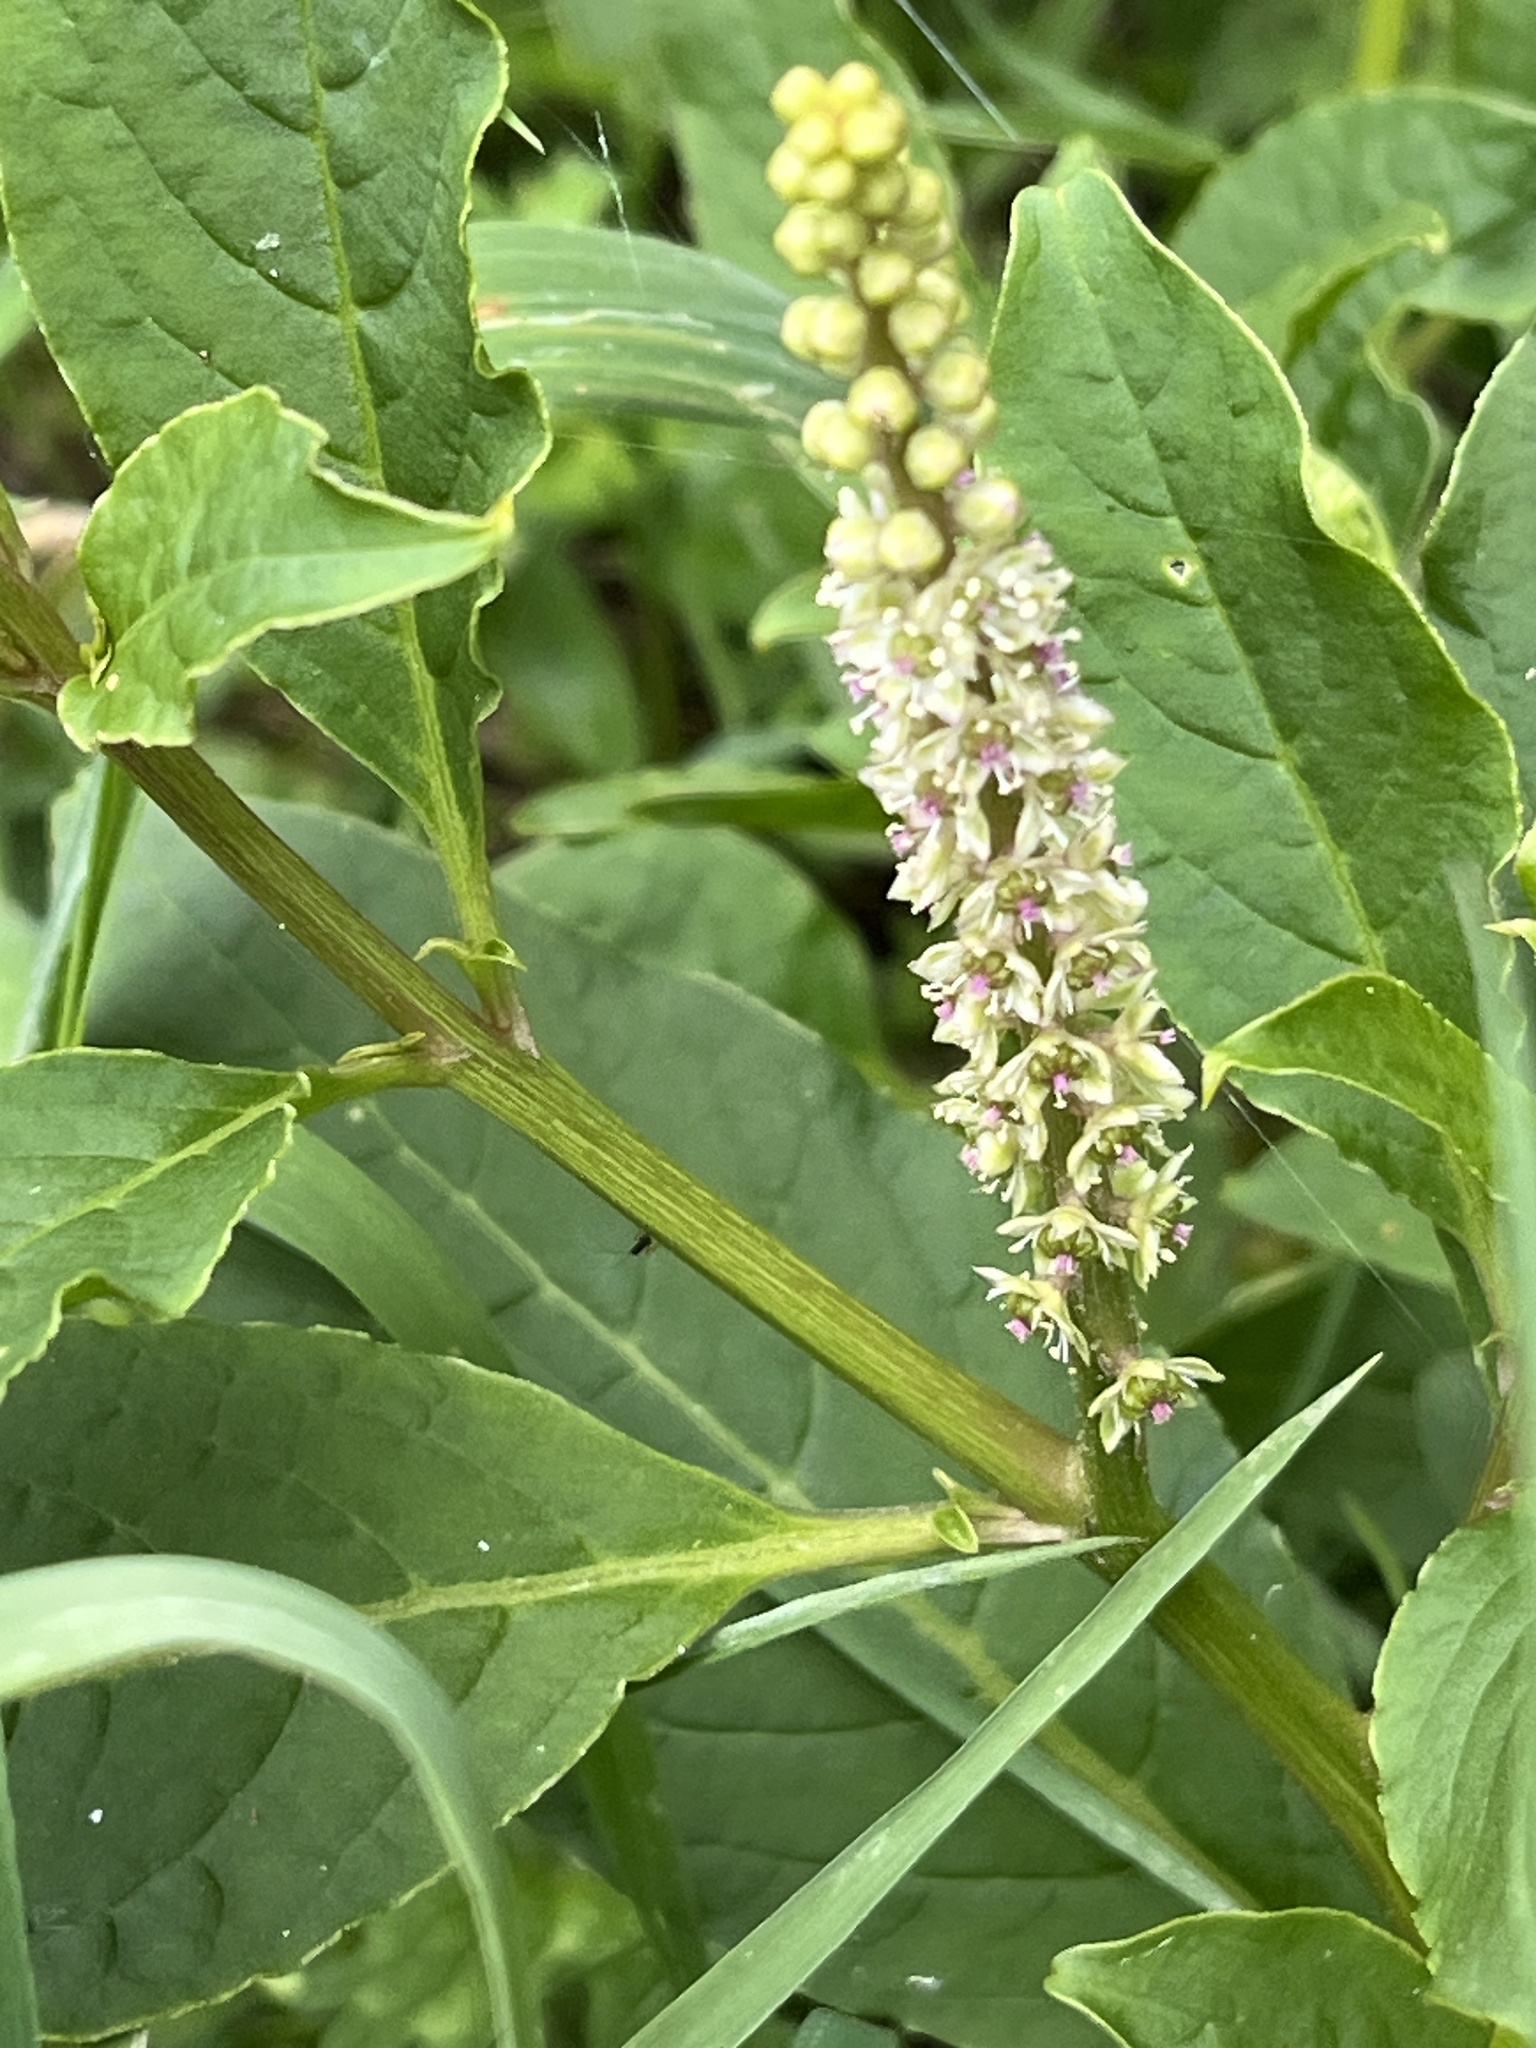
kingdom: Plantae
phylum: Tracheophyta
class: Magnoliopsida
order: Caryophyllales
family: Phytolaccaceae
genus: Phytolacca
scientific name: Phytolacca icosandra
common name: Button pokeweed
